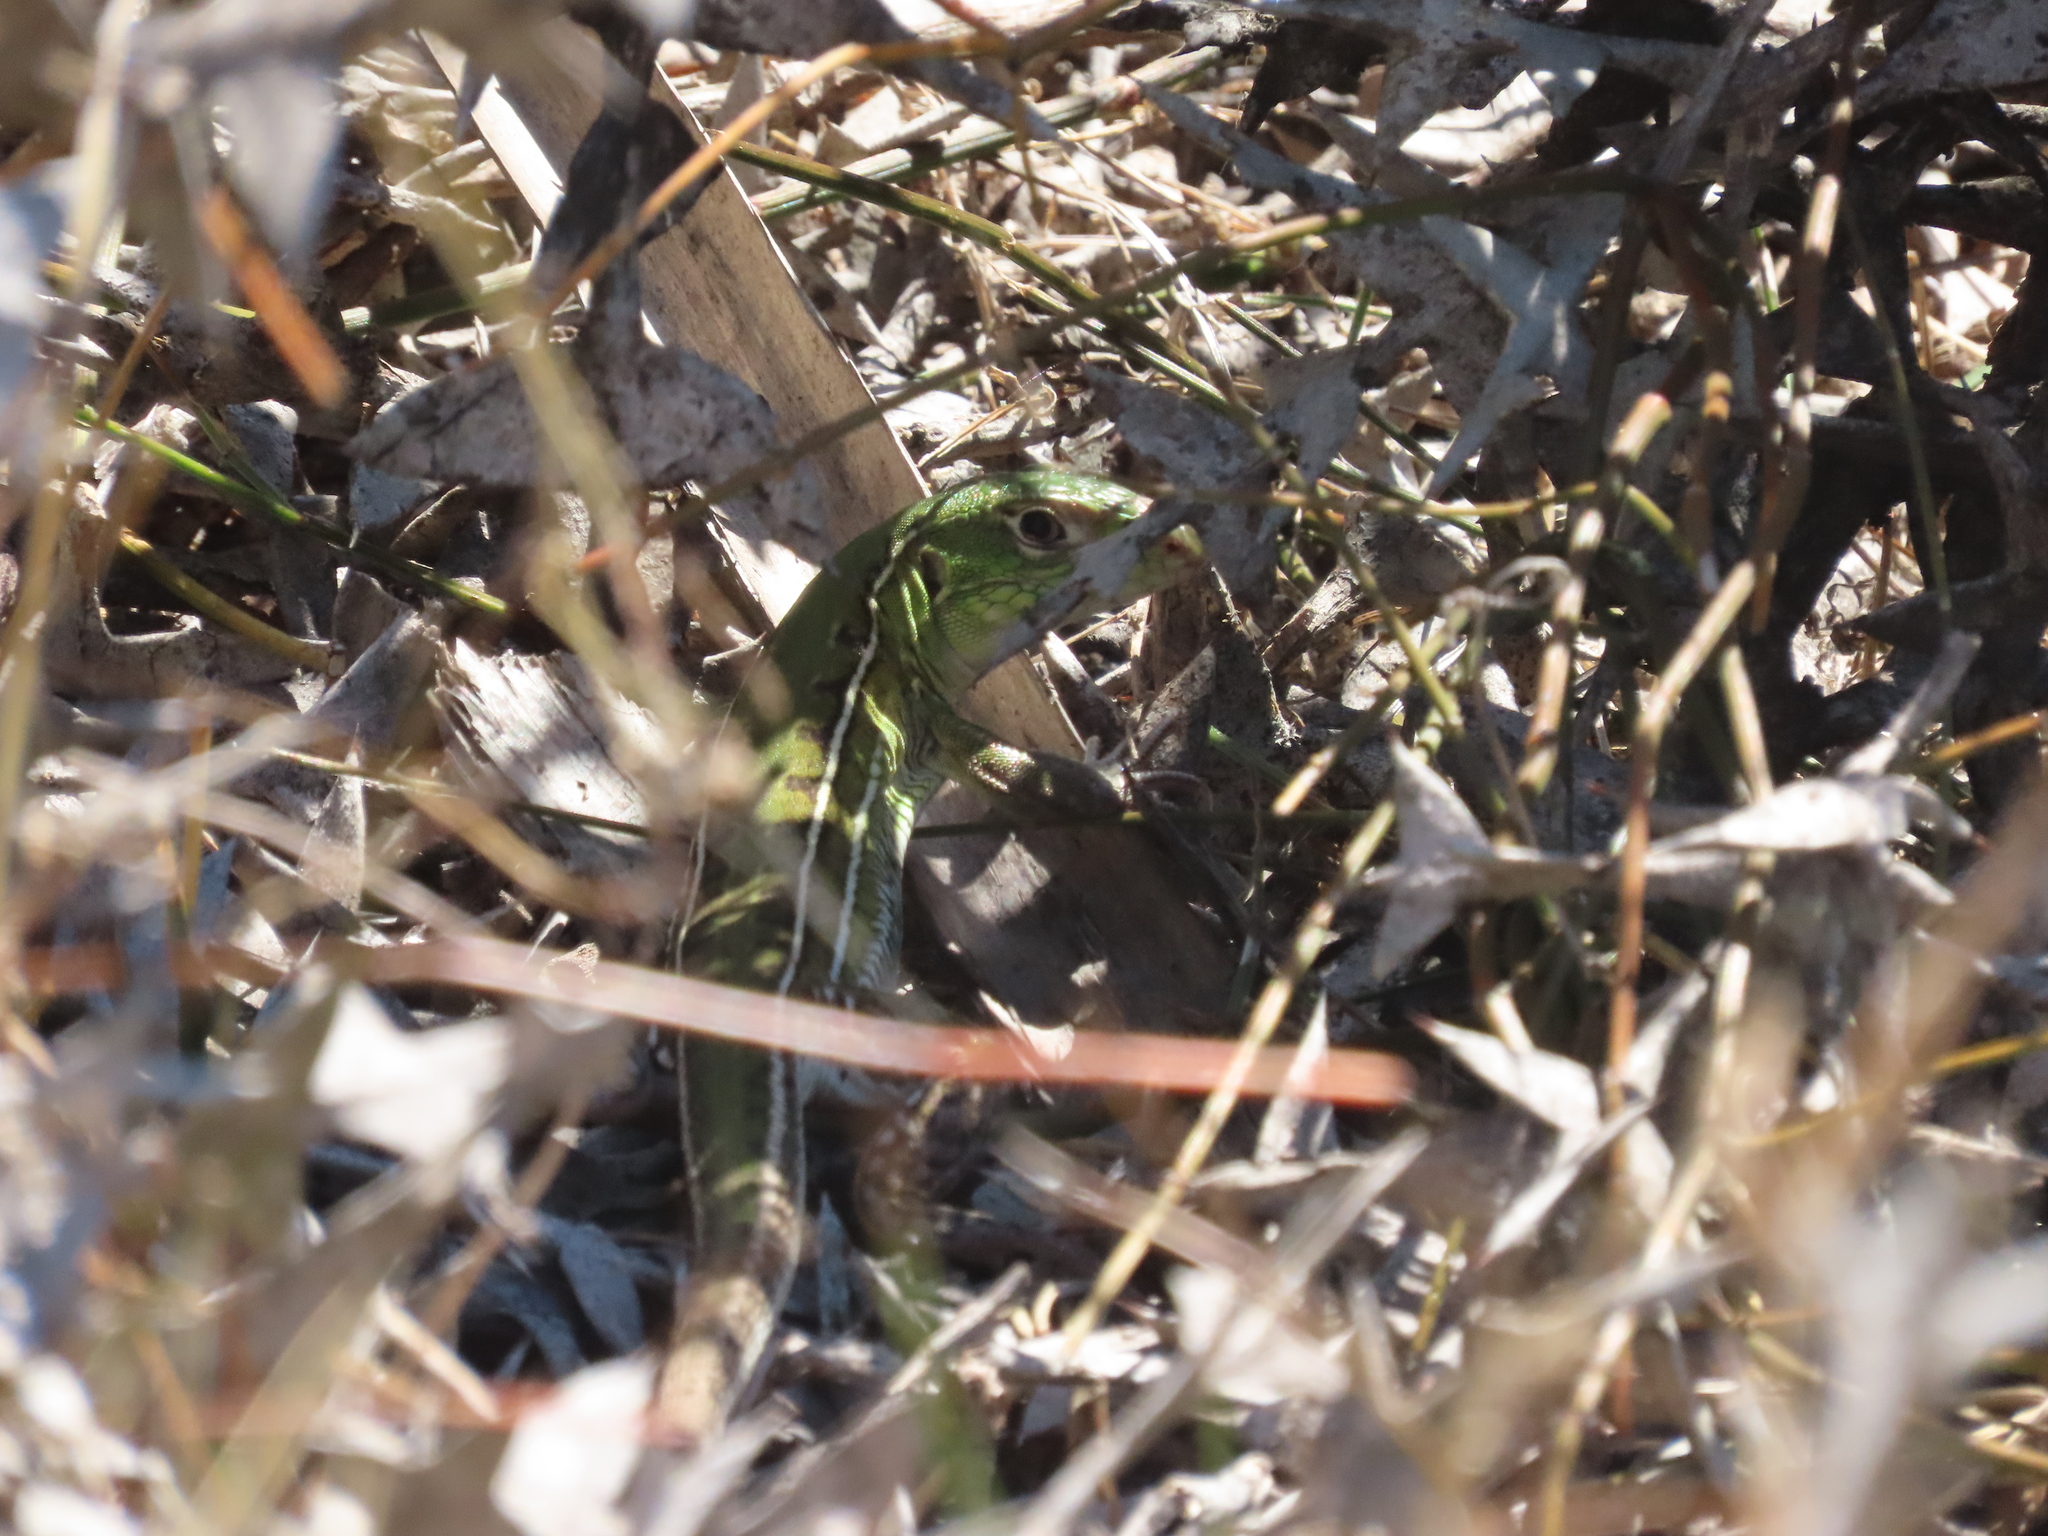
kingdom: Animalia
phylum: Chordata
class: Squamata
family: Teiidae
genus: Teius
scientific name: Teius oculatus
